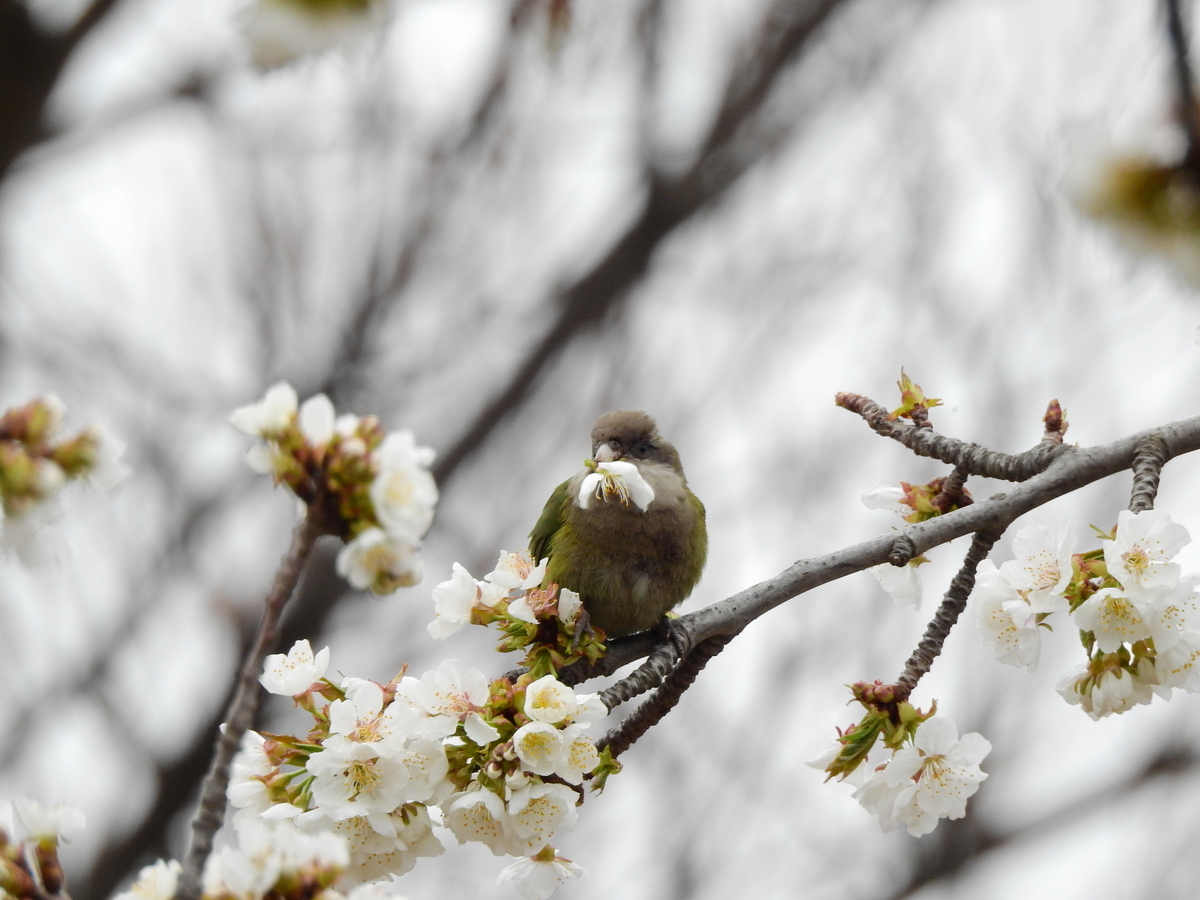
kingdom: Animalia
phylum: Chordata
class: Aves
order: Psittaciformes
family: Psittacidae
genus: Psilopsiagon
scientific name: Psilopsiagon aymara
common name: Grey-hooded parakeet
